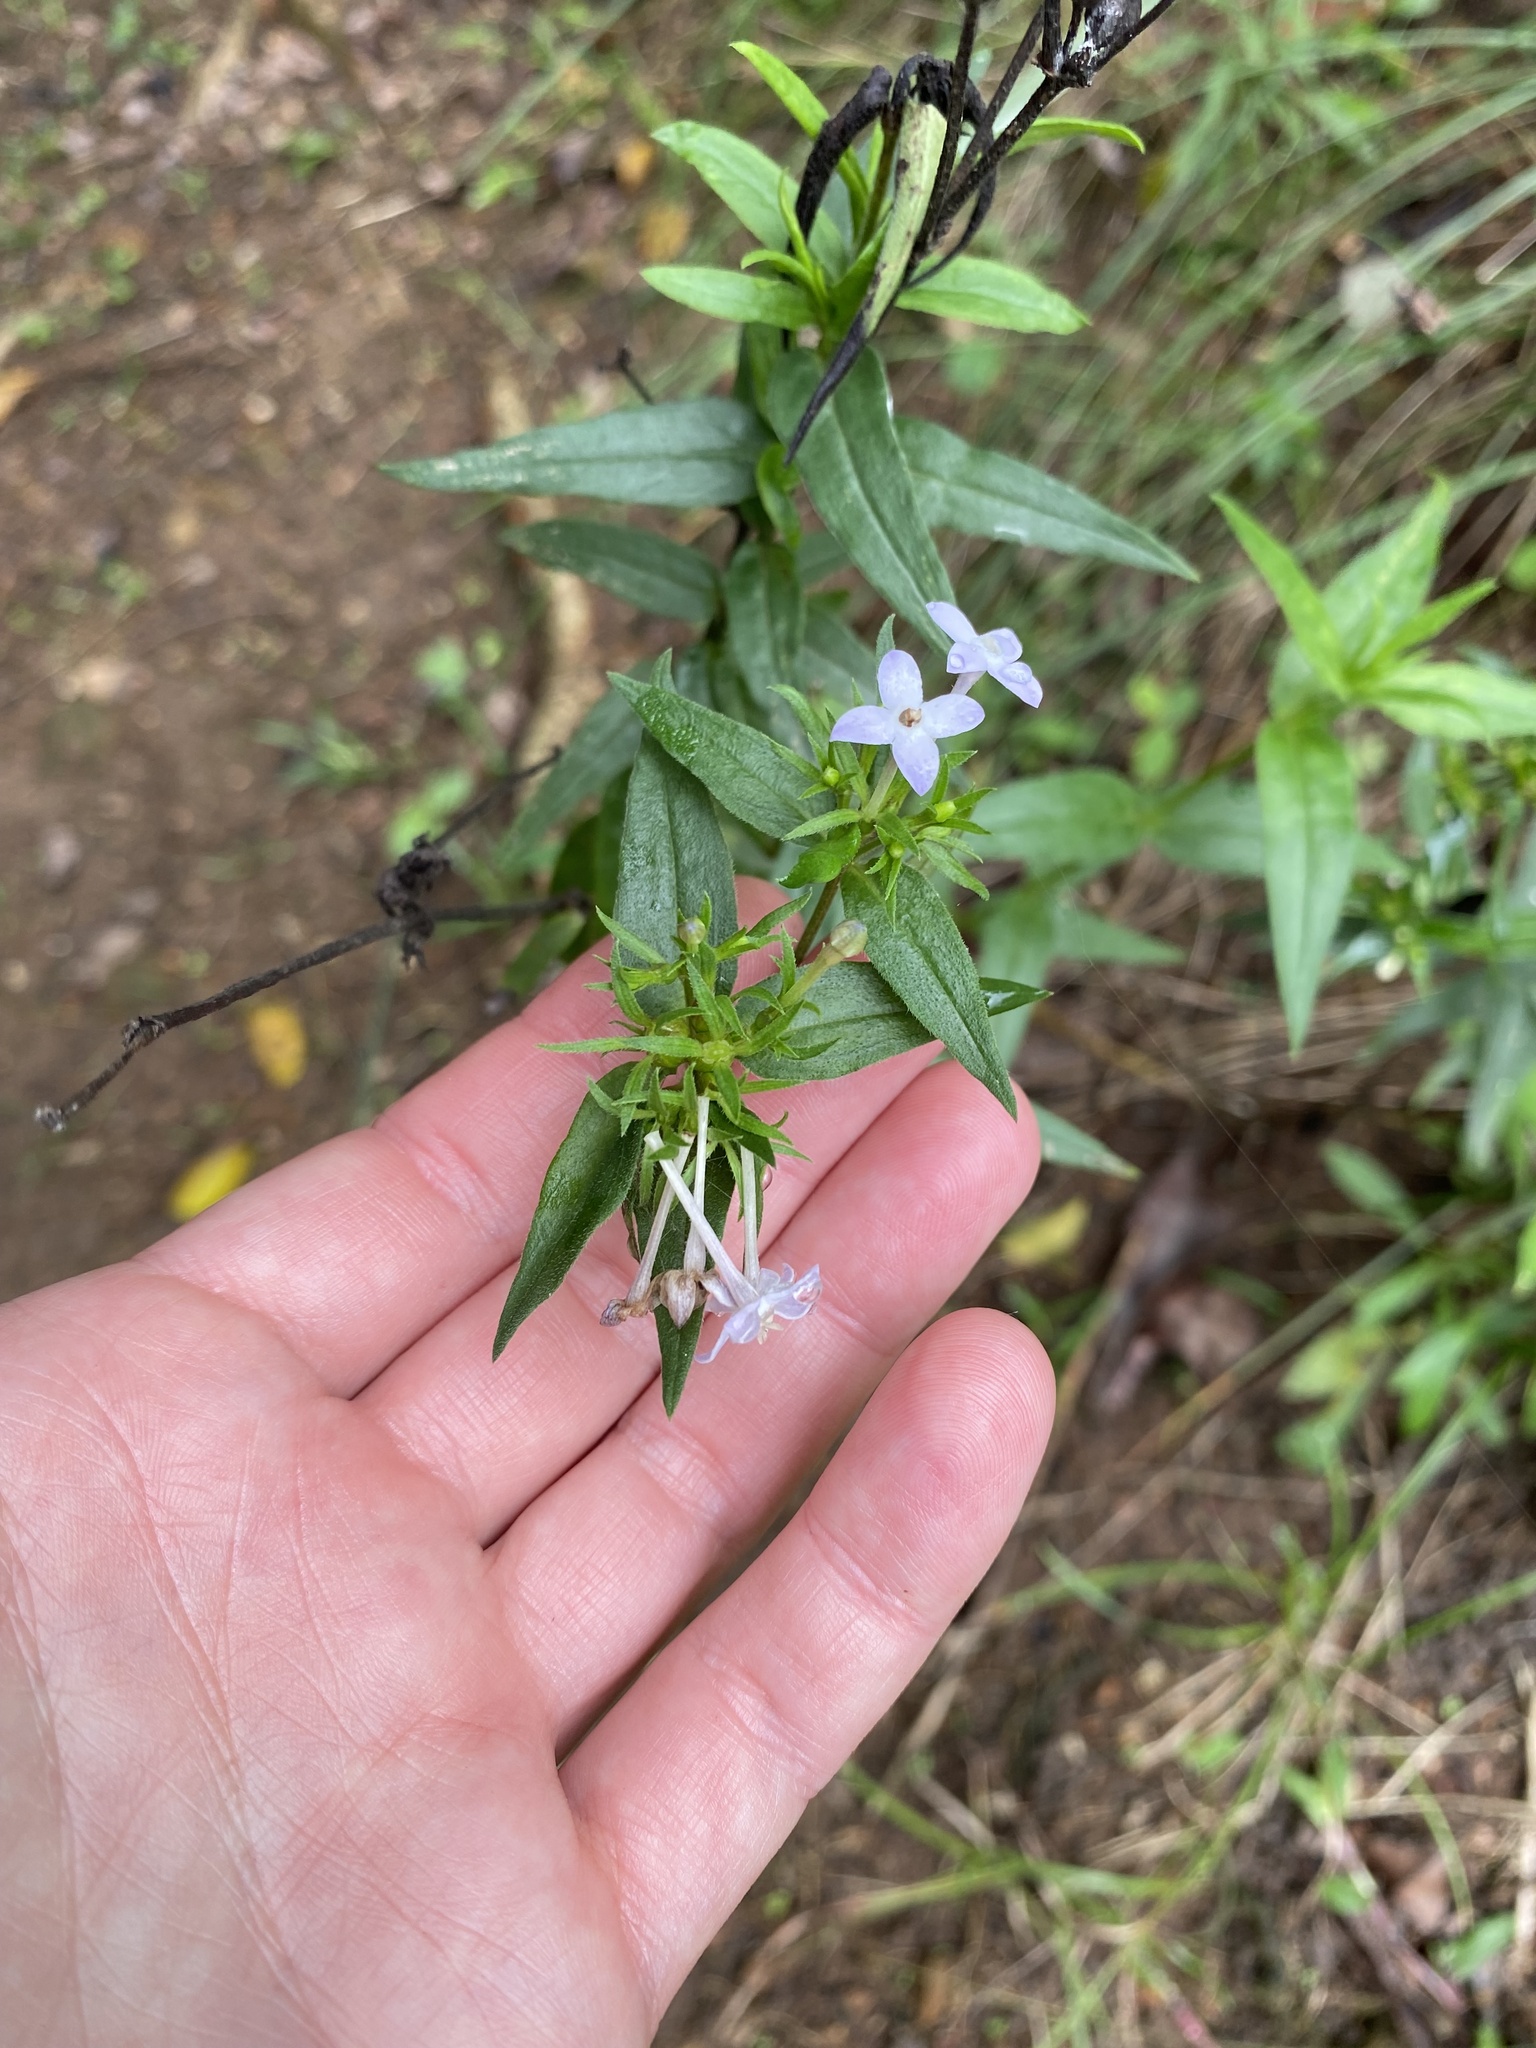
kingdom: Plantae
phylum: Tracheophyta
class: Magnoliopsida
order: Gentianales
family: Rubiaceae
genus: Conostomium
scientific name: Conostomium natalense
